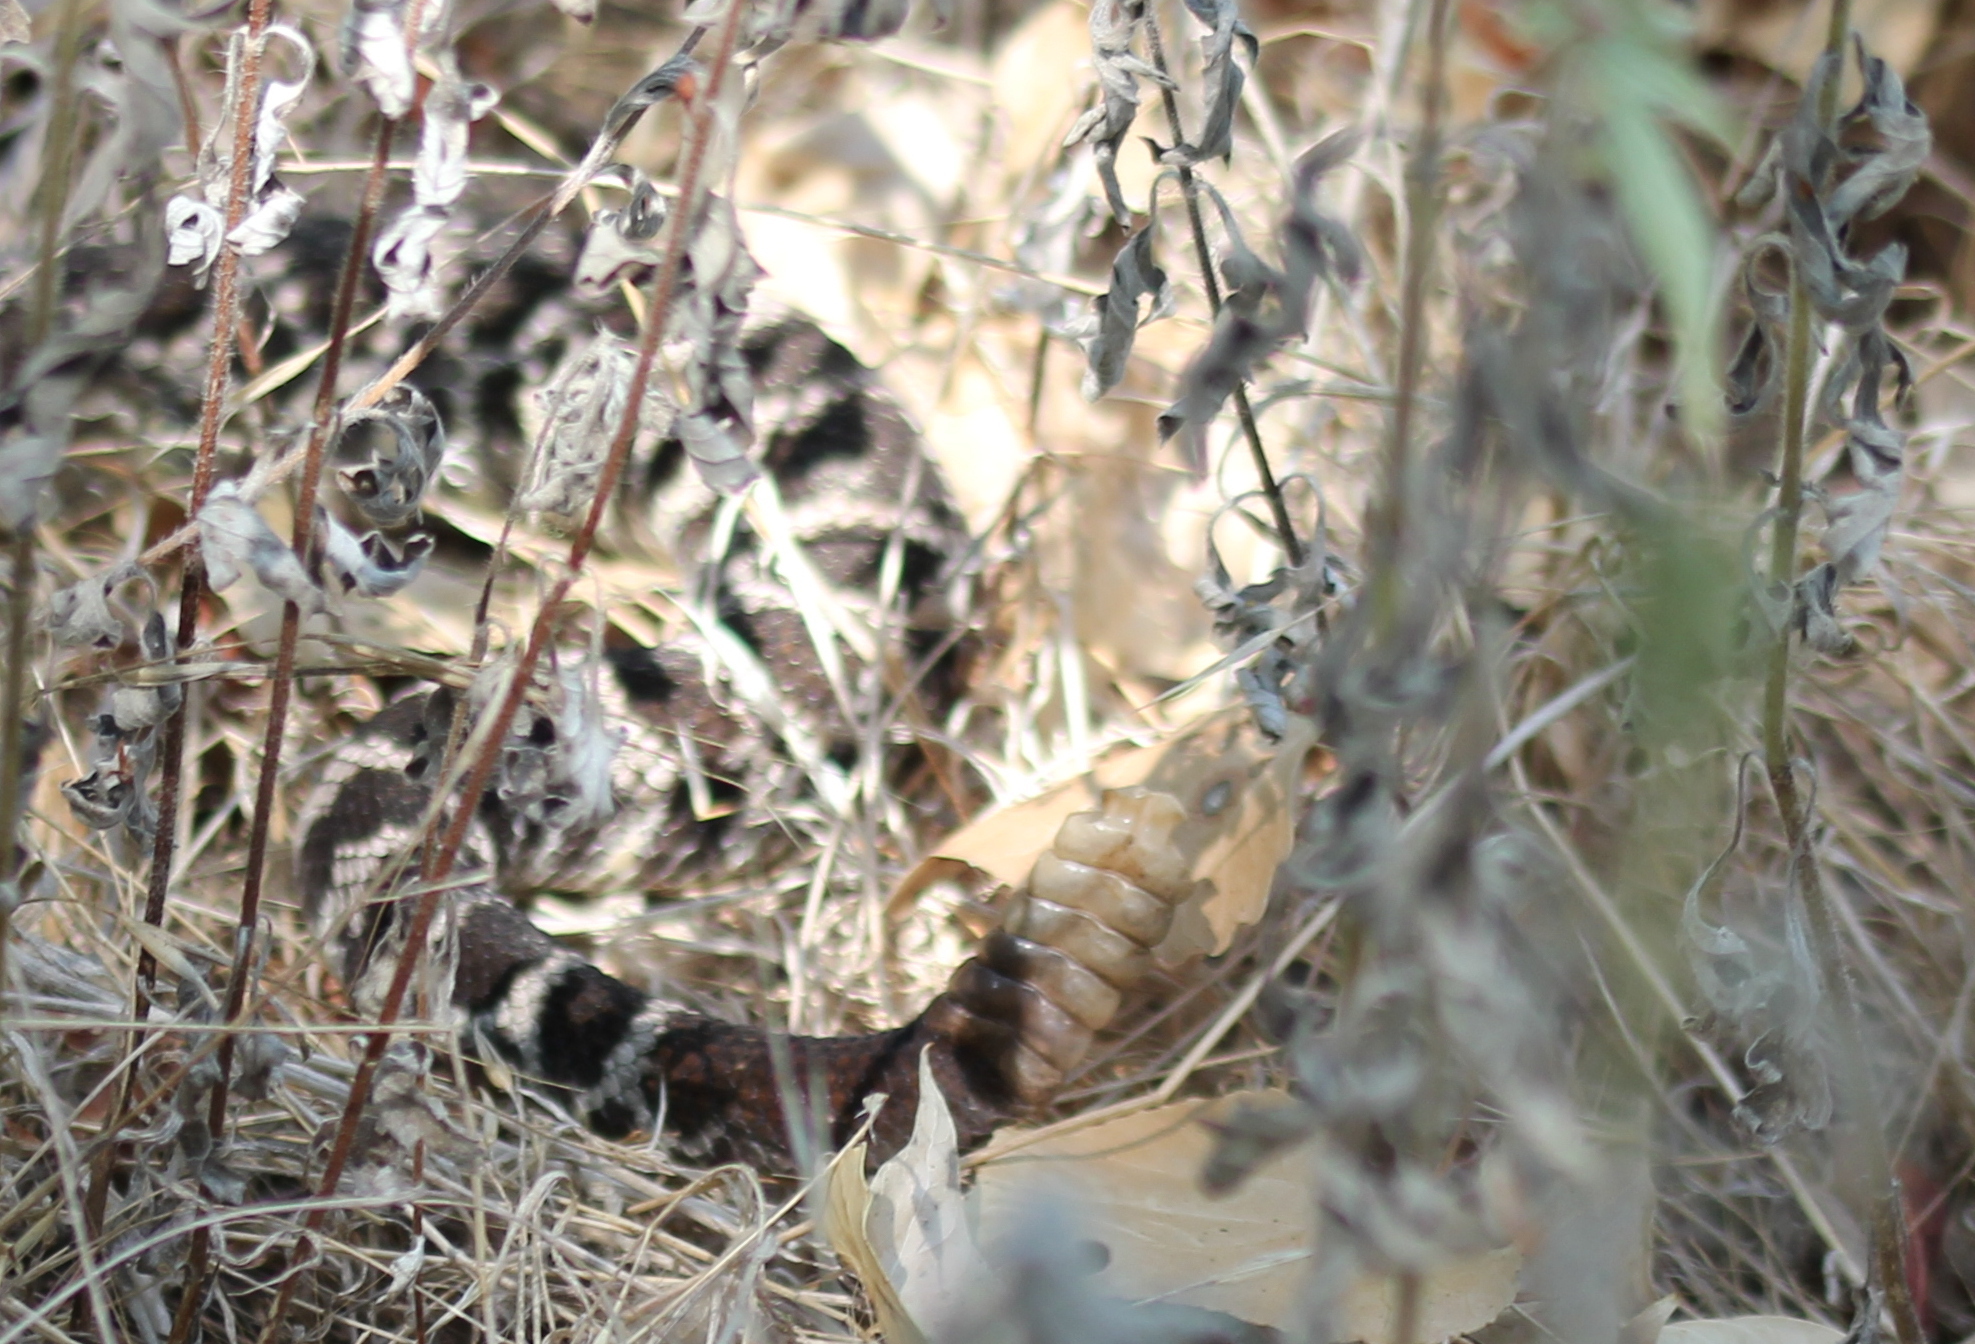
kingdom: Animalia
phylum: Chordata
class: Squamata
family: Viperidae
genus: Crotalus
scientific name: Crotalus oreganus
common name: Abyssus
